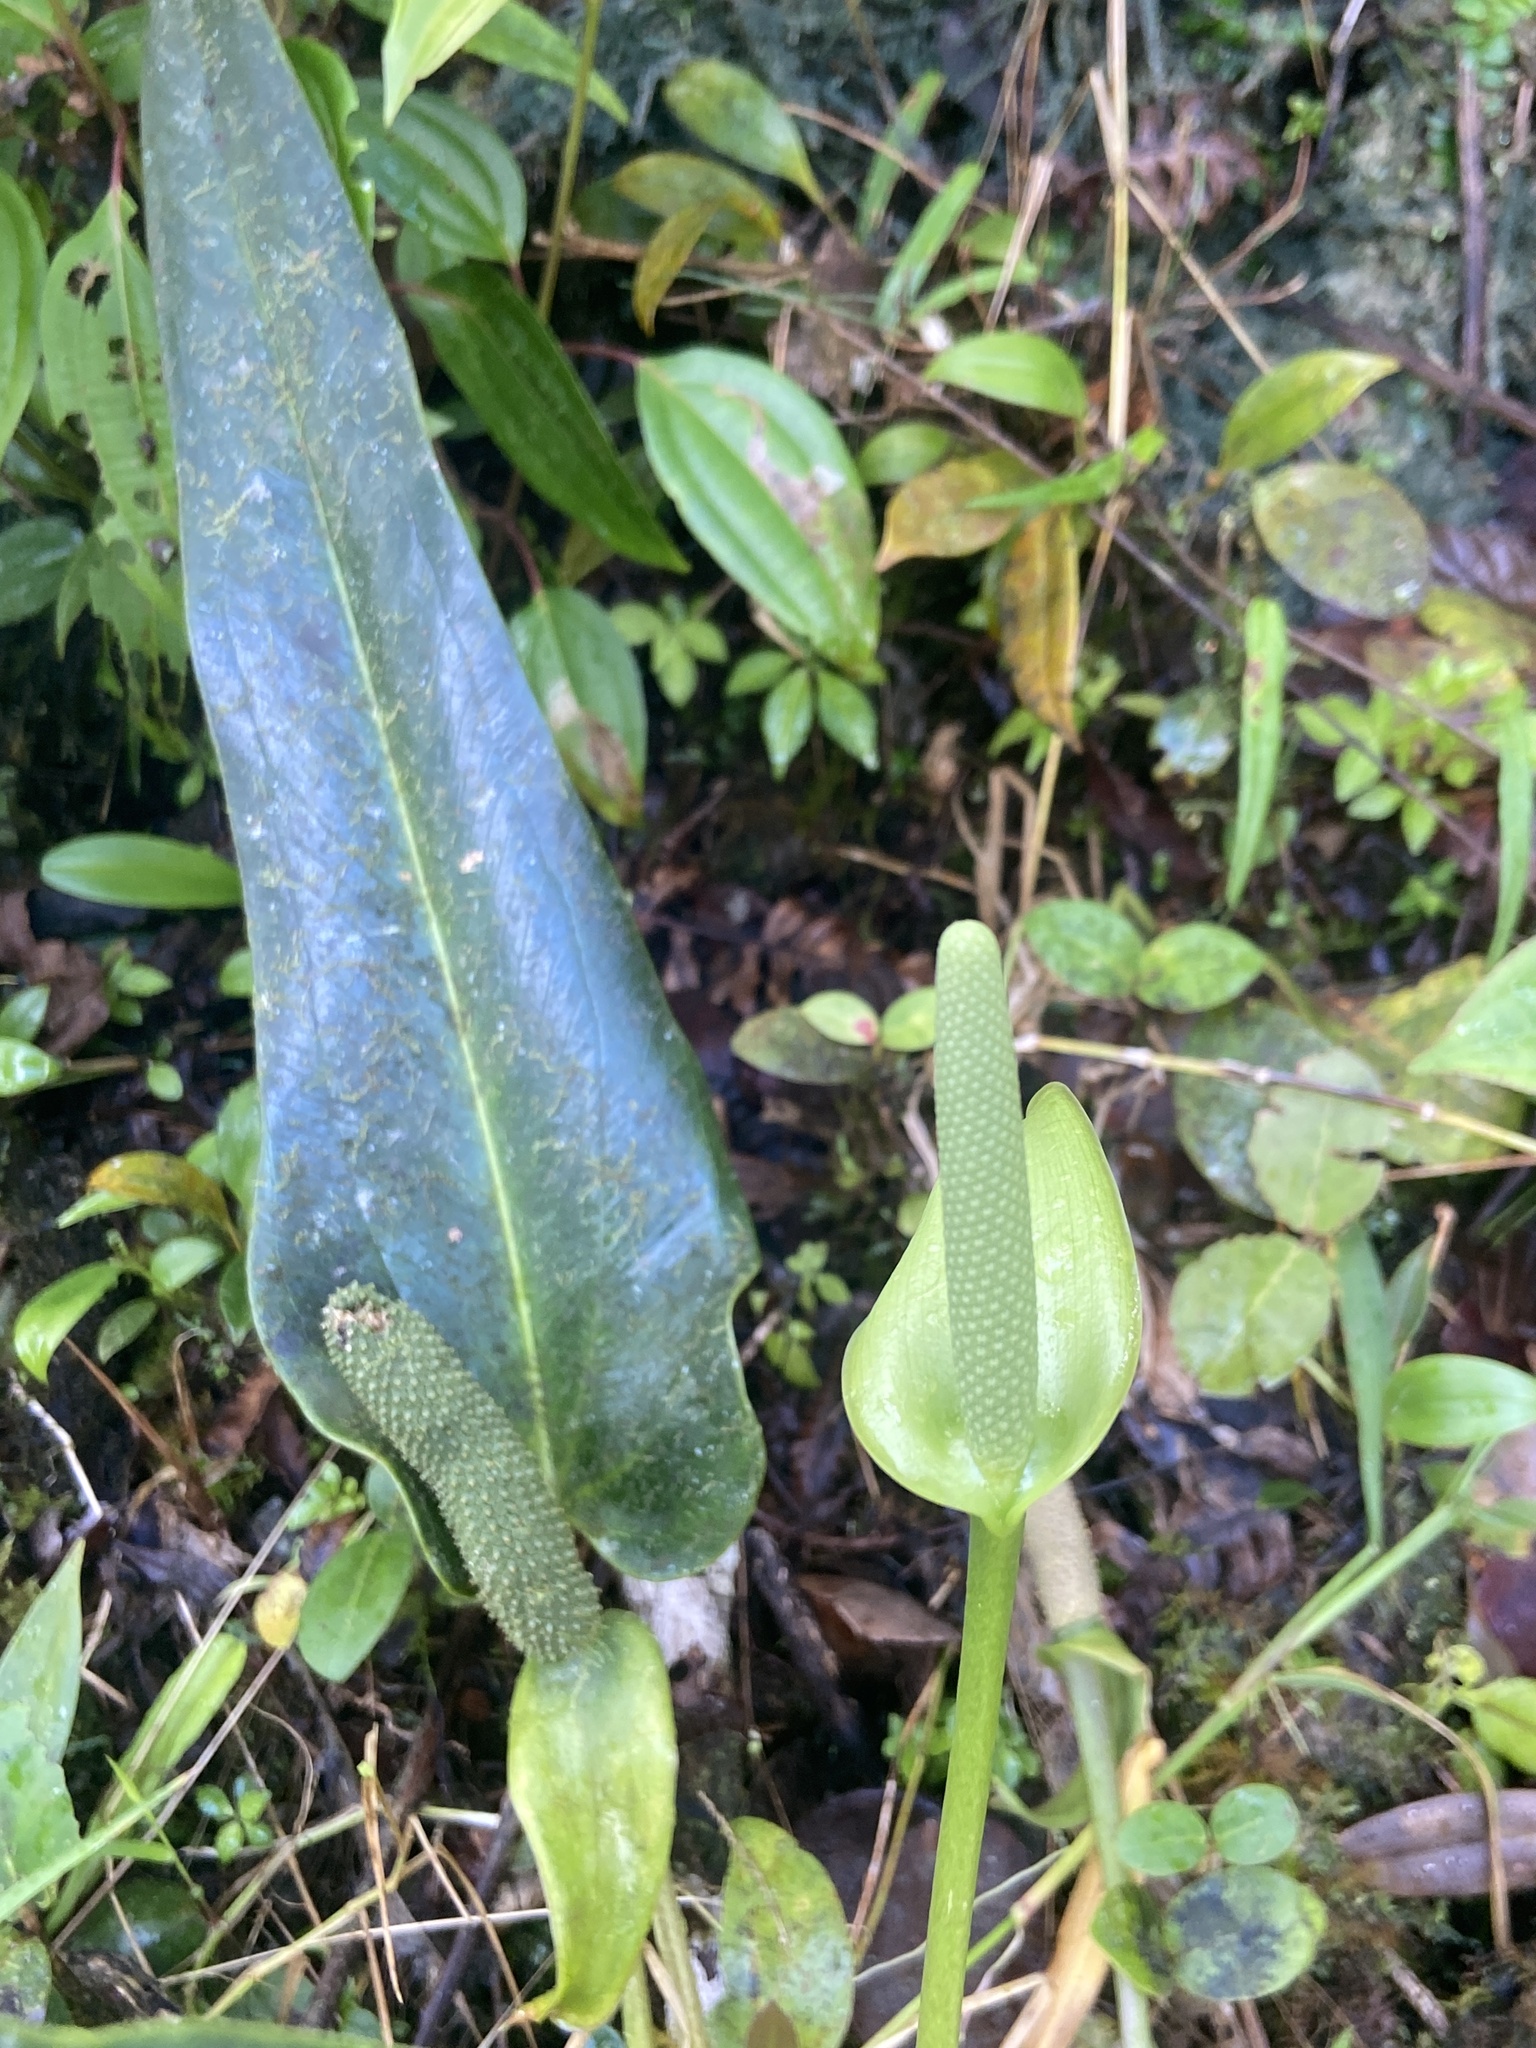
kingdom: Plantae
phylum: Tracheophyta
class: Liliopsida
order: Alismatales
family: Araceae
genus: Anthurium
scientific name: Anthurium dominicense
